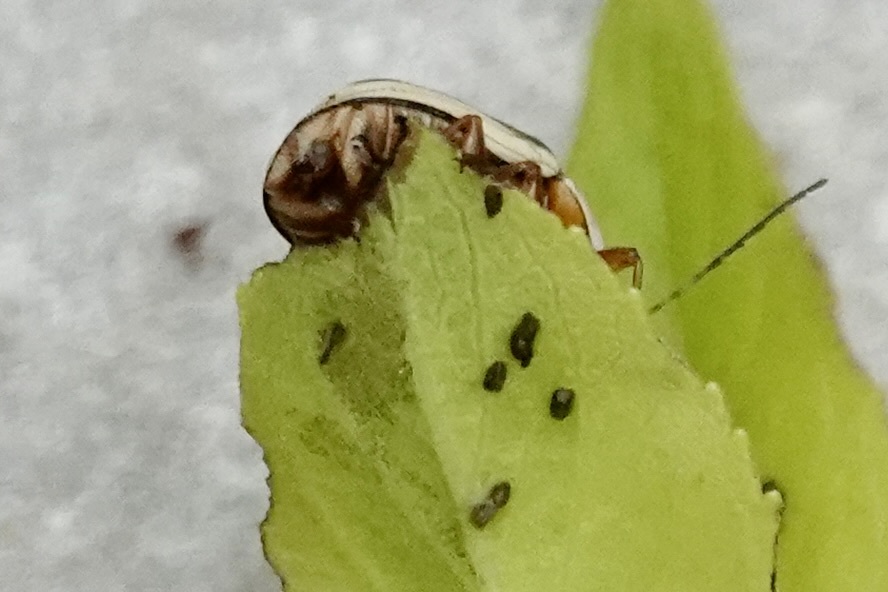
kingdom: Animalia
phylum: Arthropoda
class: Insecta
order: Coleoptera
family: Chrysomelidae
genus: Cryptocephalus
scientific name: Cryptocephalus venustus
